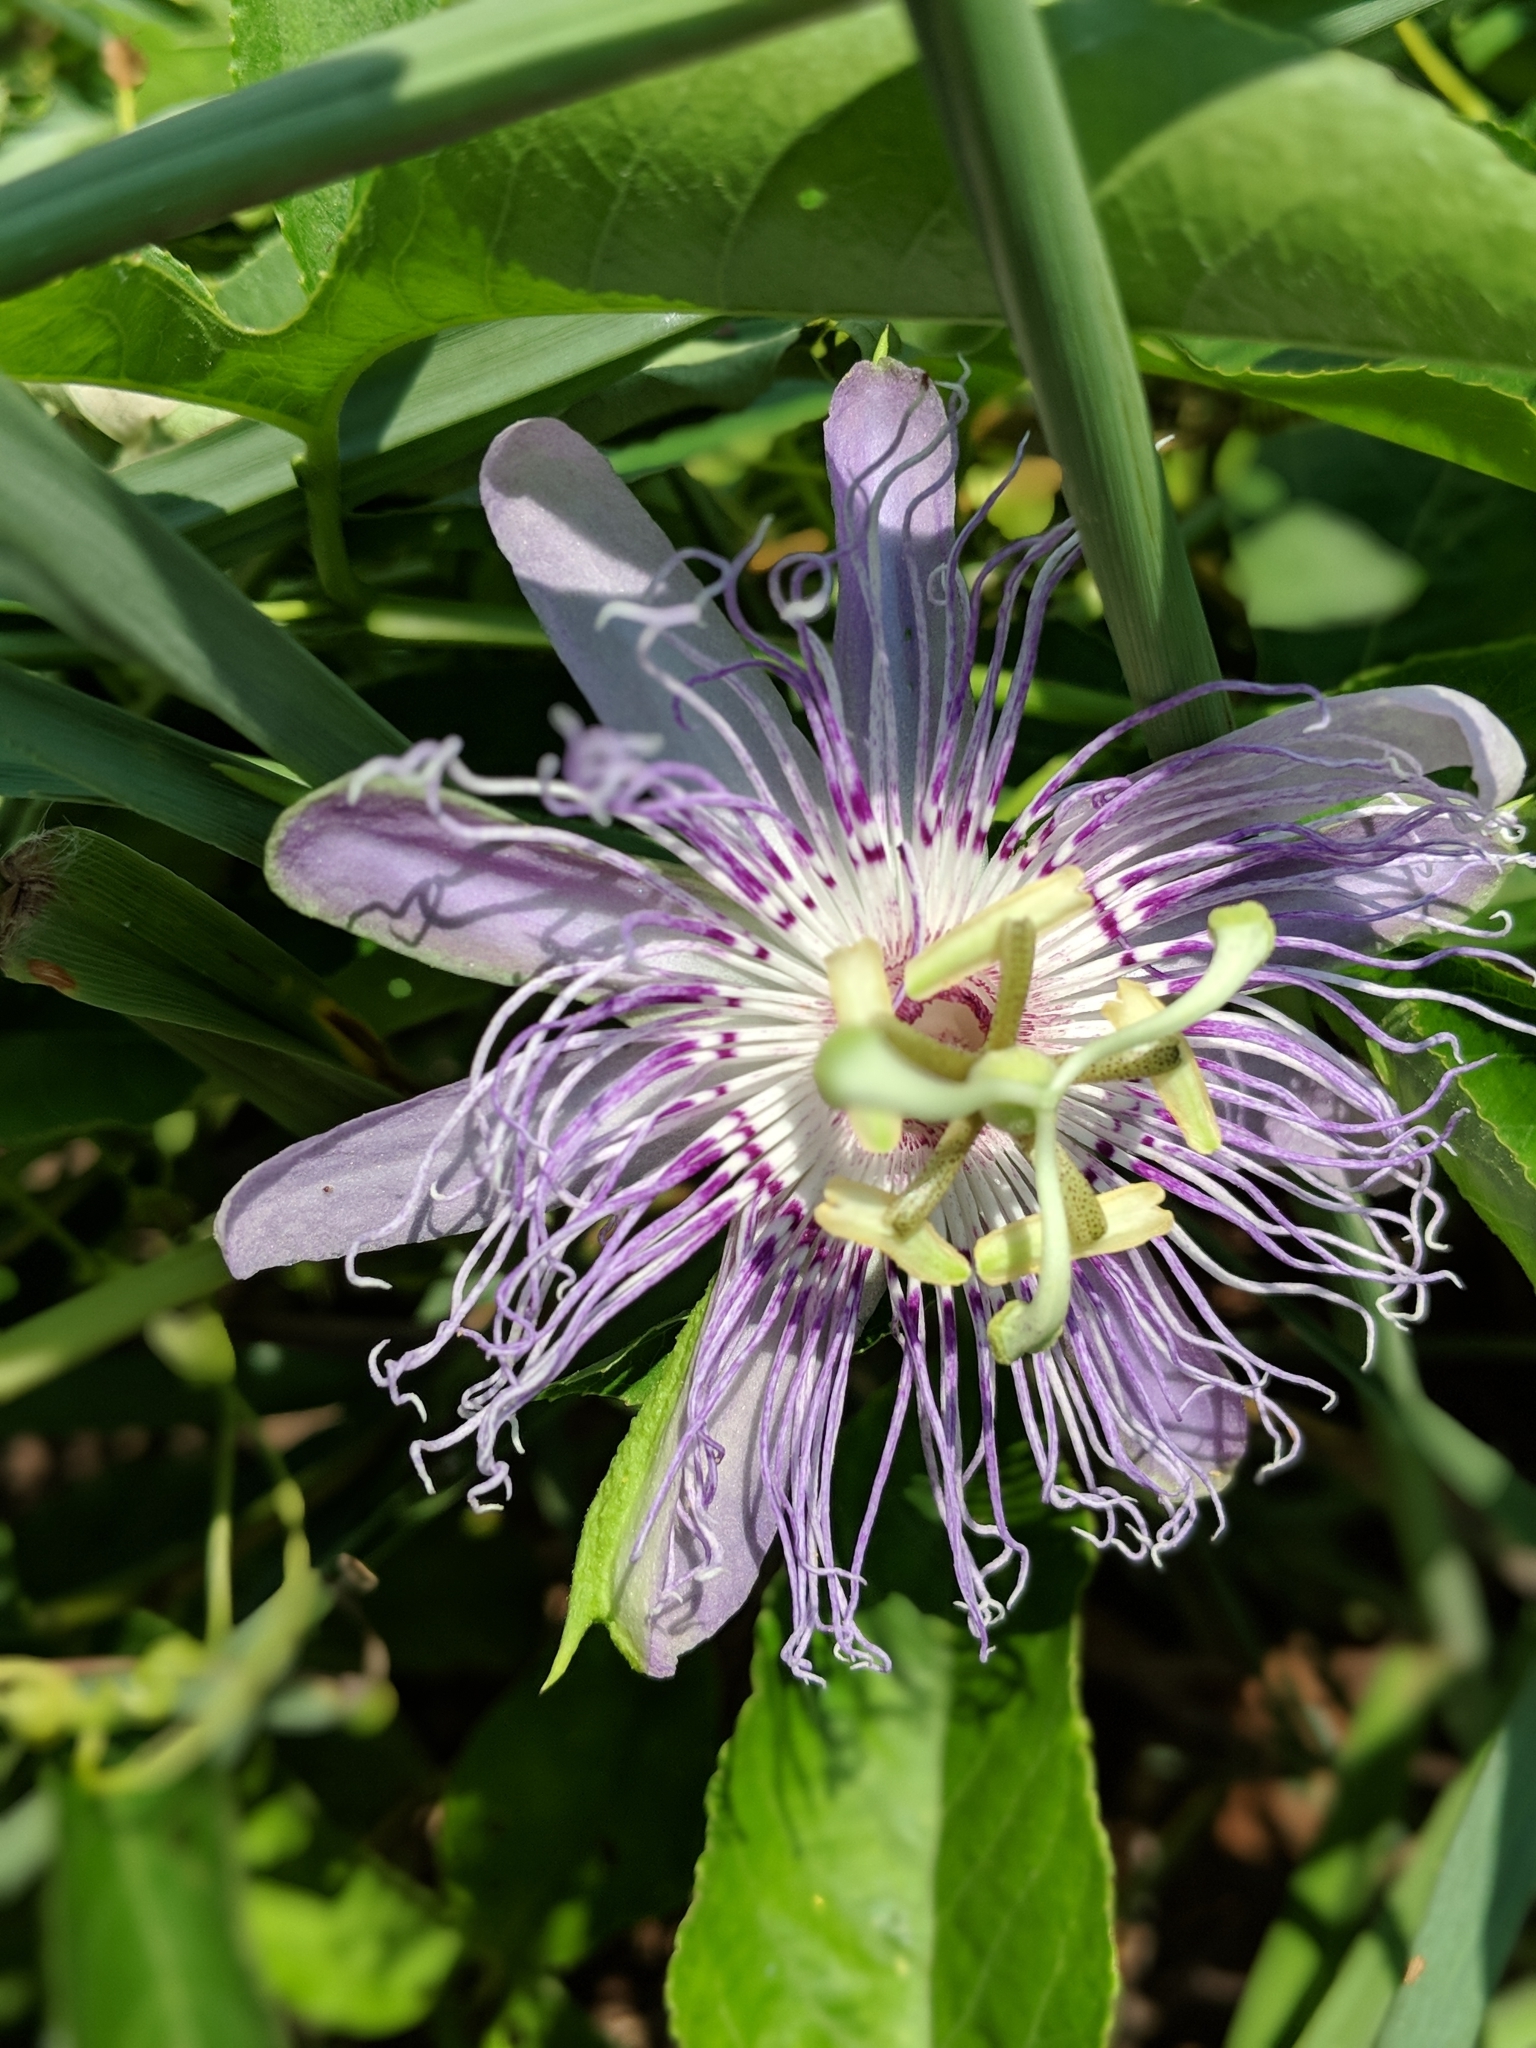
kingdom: Plantae
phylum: Tracheophyta
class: Magnoliopsida
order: Malpighiales
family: Passifloraceae
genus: Passiflora
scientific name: Passiflora incarnata
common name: Apricot-vine
